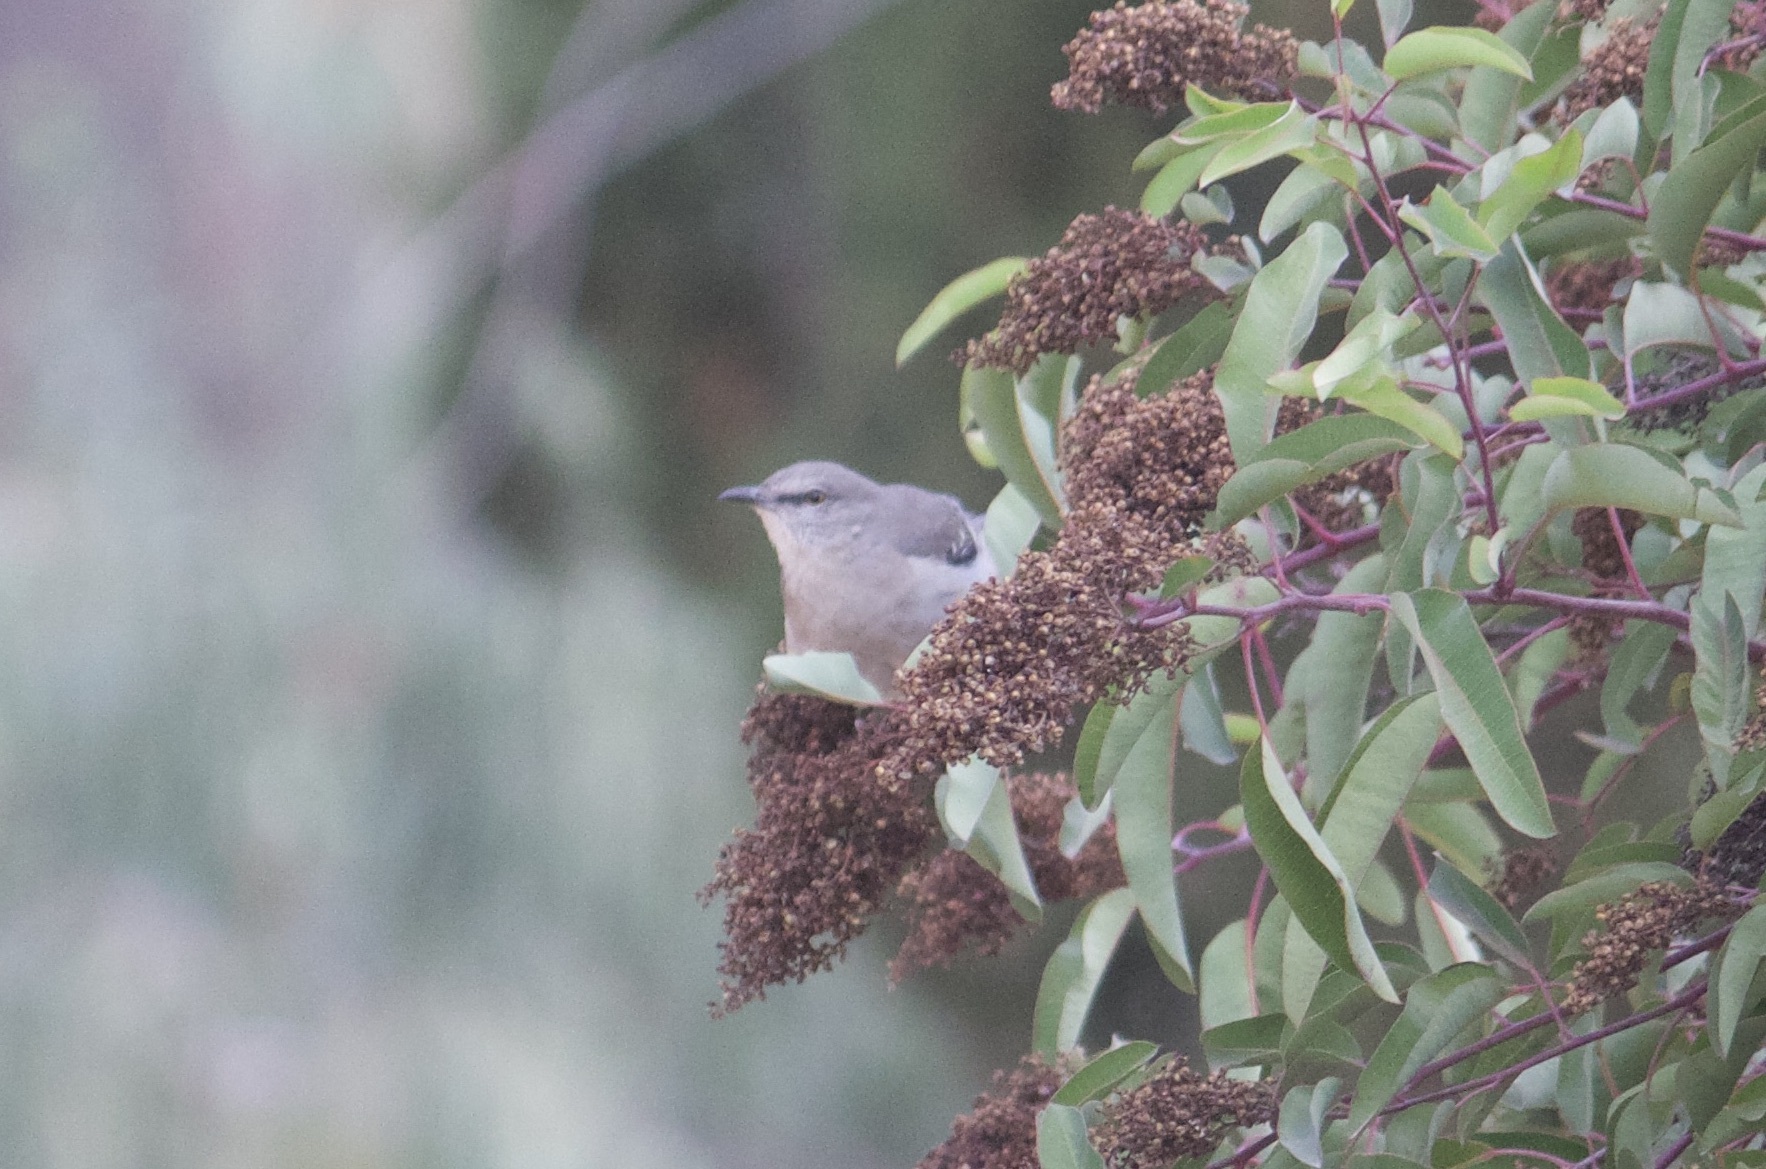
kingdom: Animalia
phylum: Chordata
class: Aves
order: Passeriformes
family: Mimidae
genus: Mimus
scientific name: Mimus polyglottos
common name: Northern mockingbird
